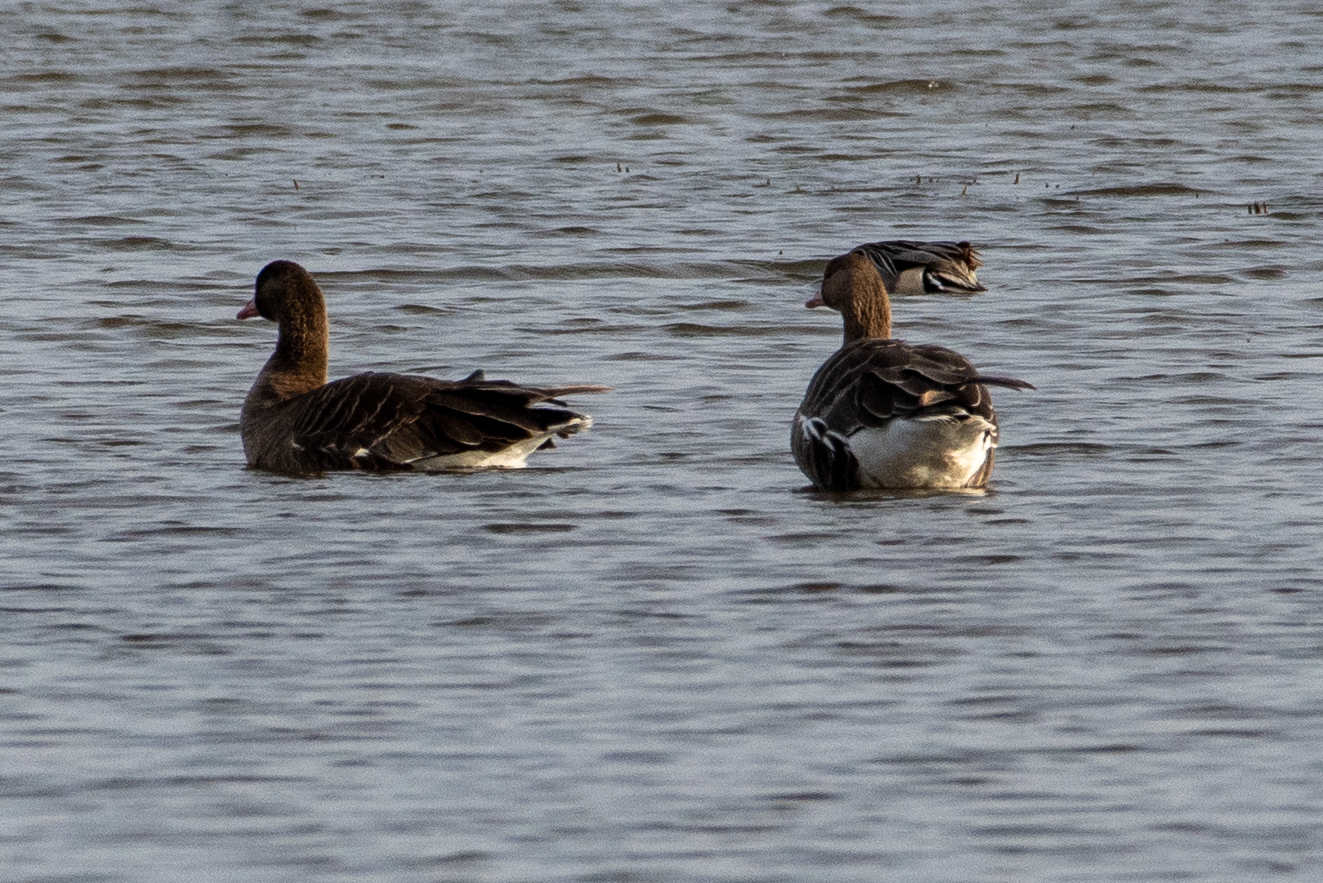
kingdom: Animalia
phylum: Chordata
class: Aves
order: Anseriformes
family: Anatidae
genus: Anser
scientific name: Anser albifrons
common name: Greater white-fronted goose
